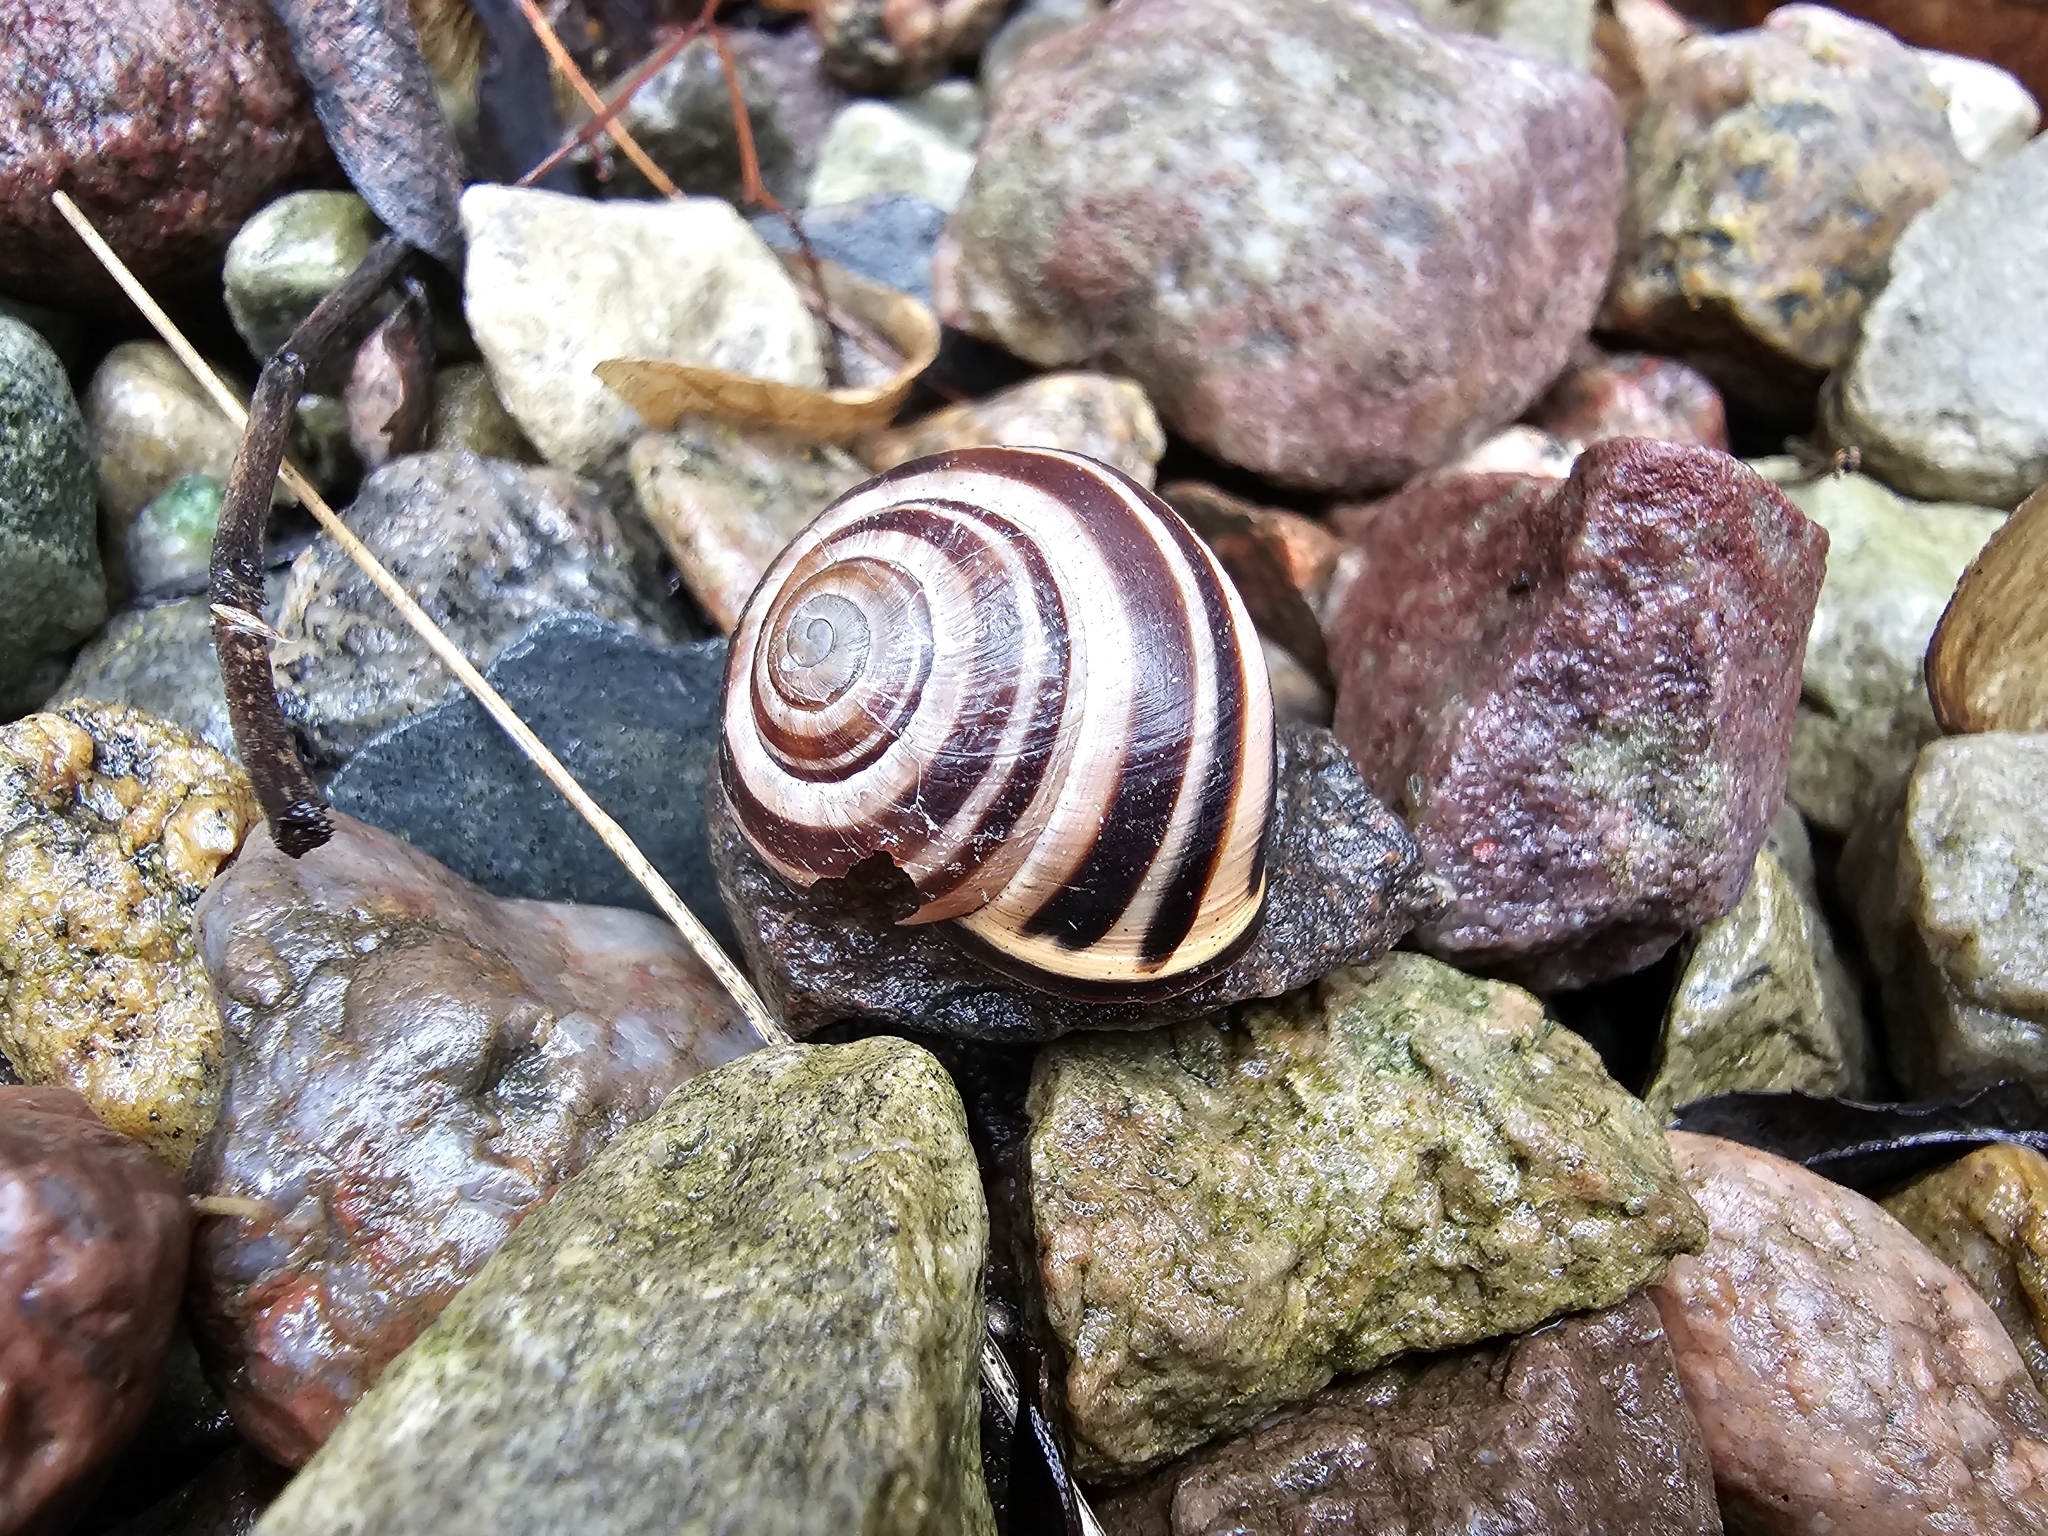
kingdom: Animalia
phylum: Mollusca
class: Gastropoda
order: Stylommatophora
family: Helicidae
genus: Cepaea
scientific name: Cepaea nemoralis
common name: Grovesnail
